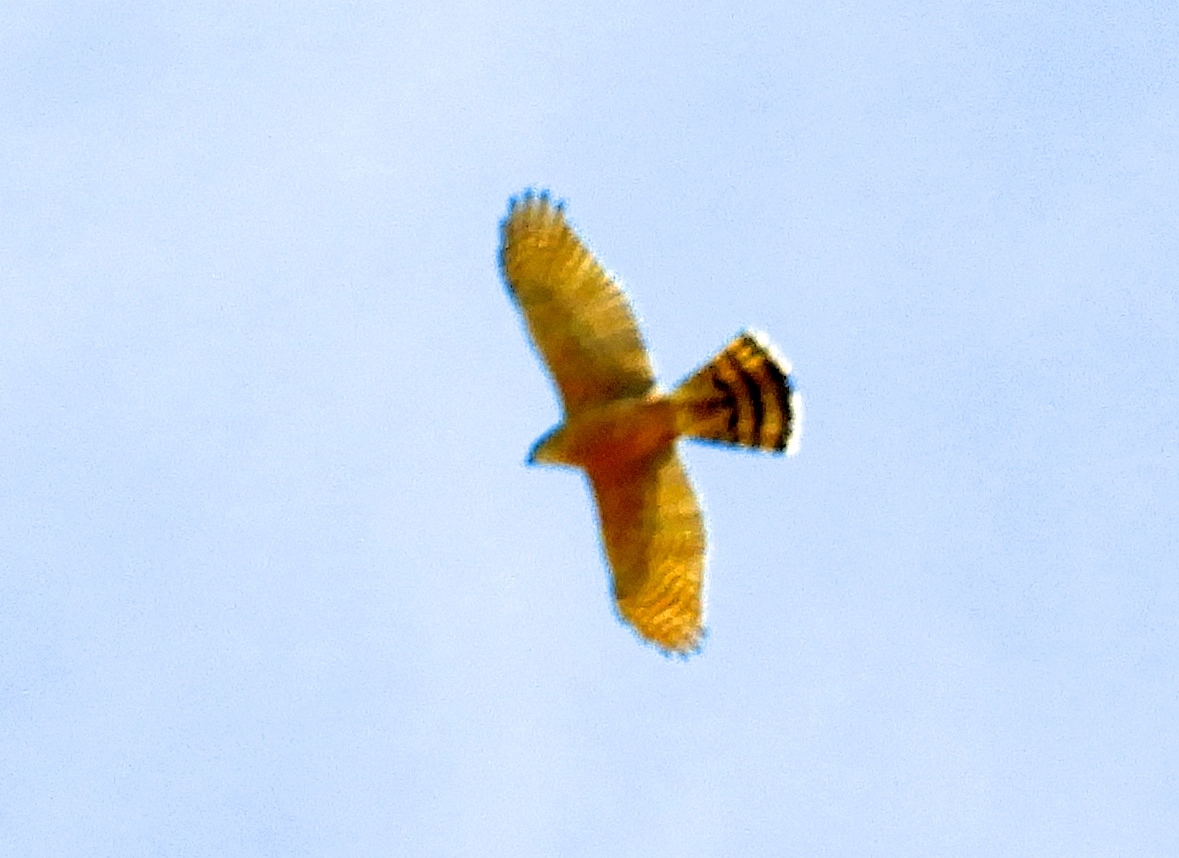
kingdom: Animalia
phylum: Chordata
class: Aves
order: Accipitriformes
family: Accipitridae
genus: Accipiter
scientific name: Accipiter cooperii
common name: Cooper's hawk
